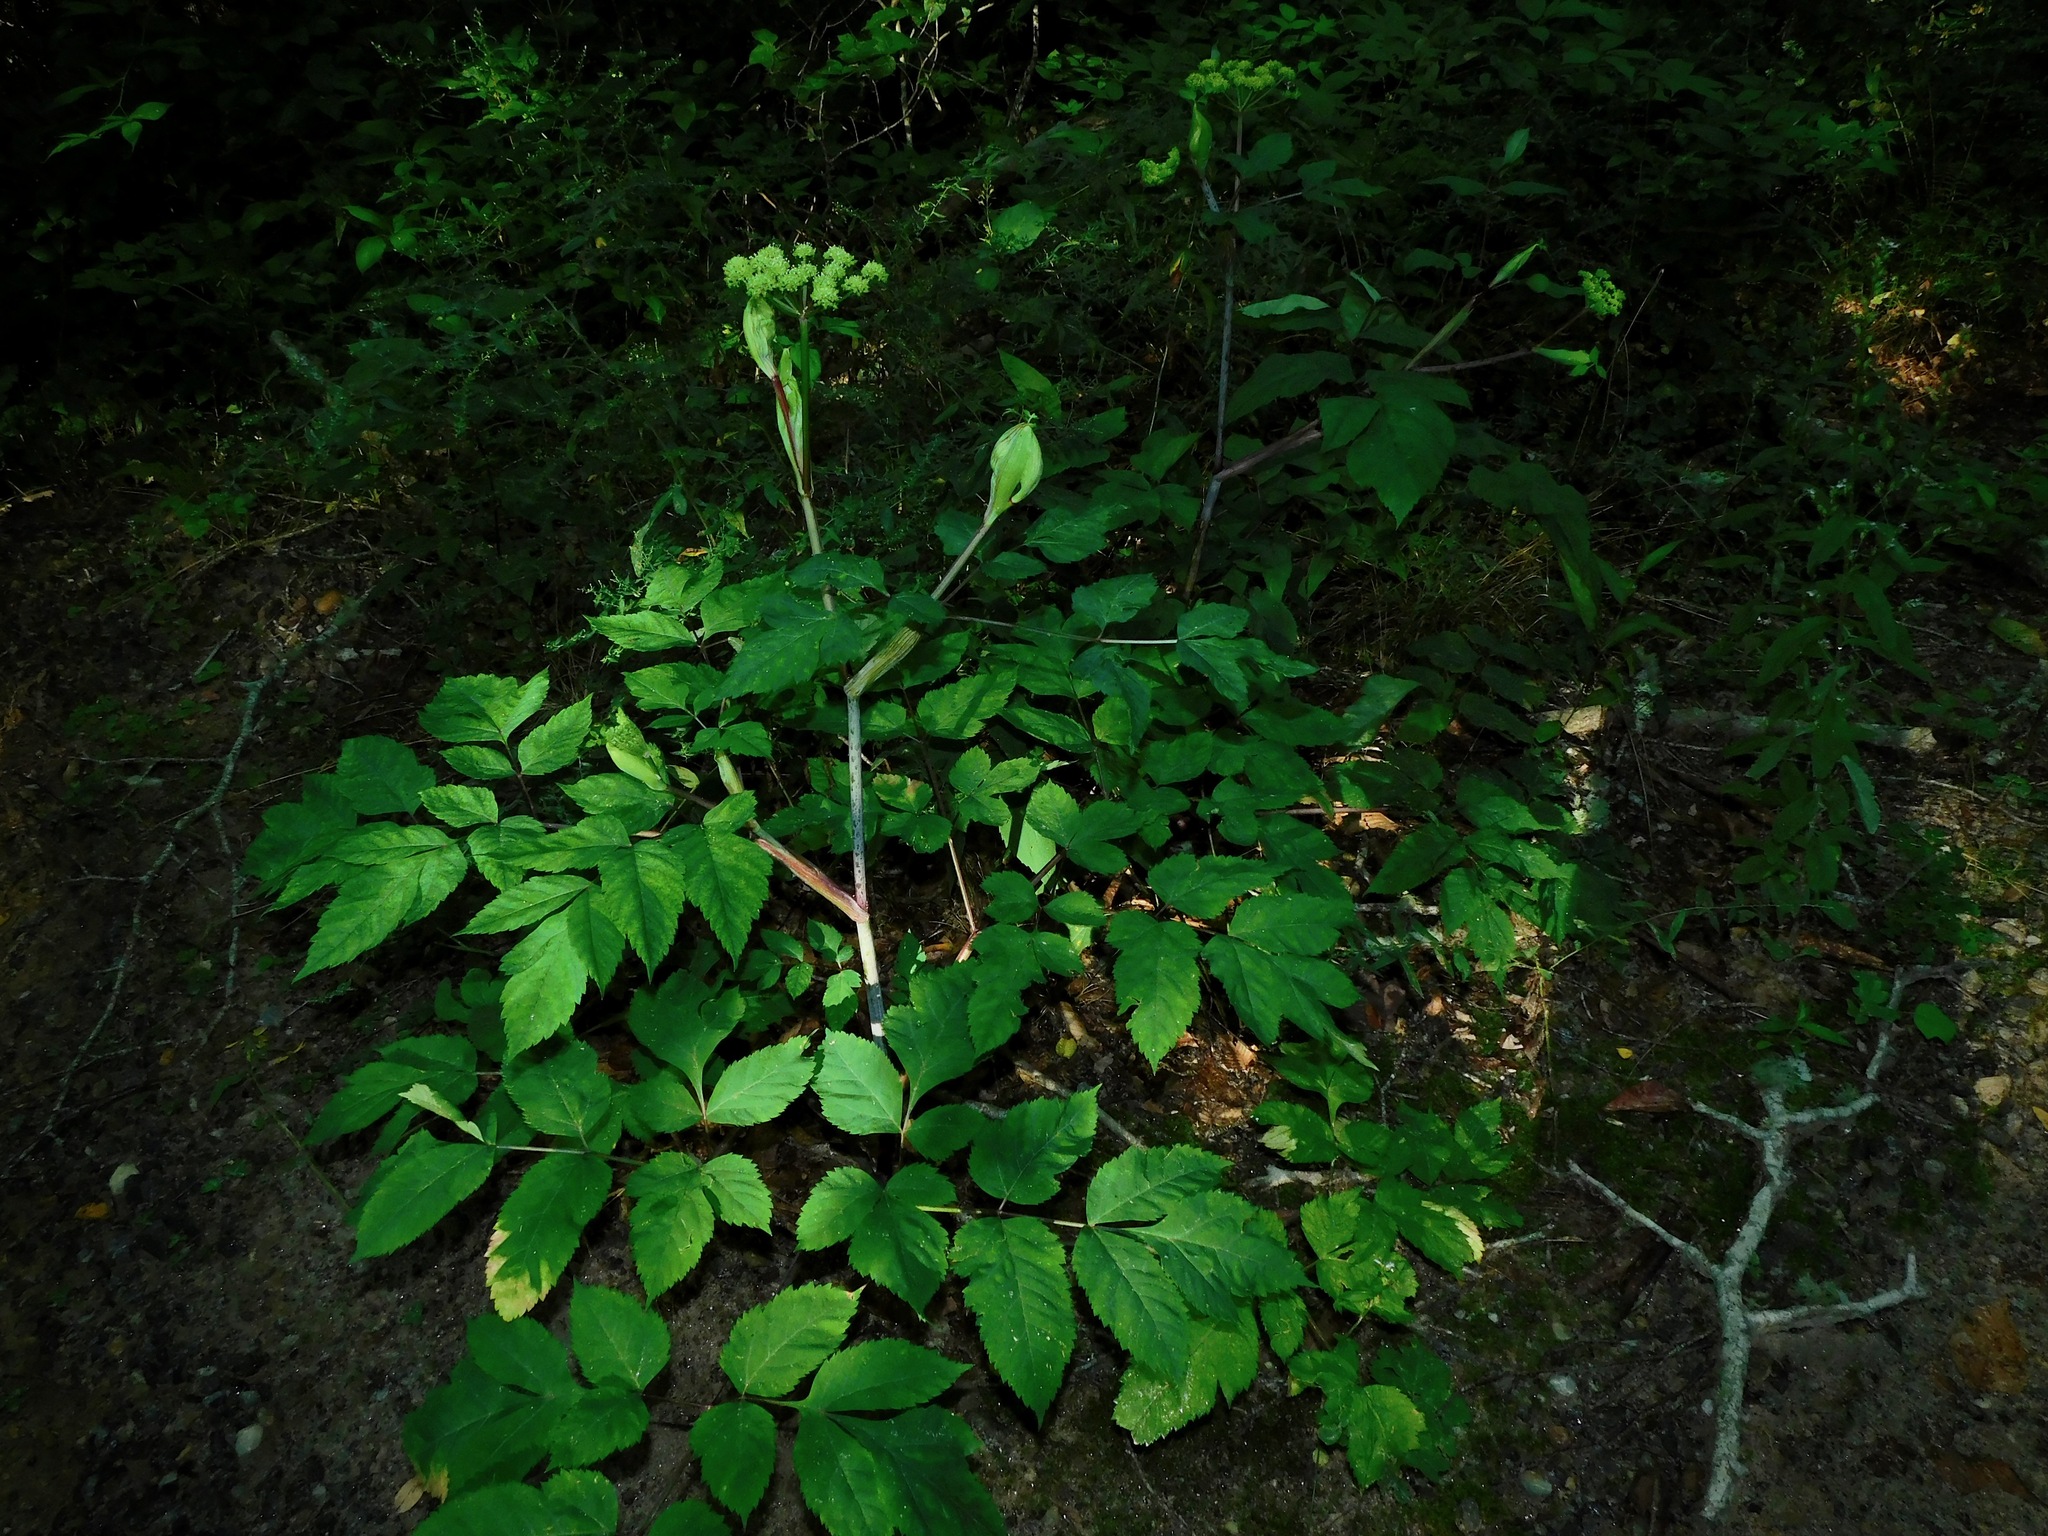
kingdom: Plantae
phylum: Tracheophyta
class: Magnoliopsida
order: Apiales
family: Apiaceae
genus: Angelica
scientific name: Angelica triquinata
